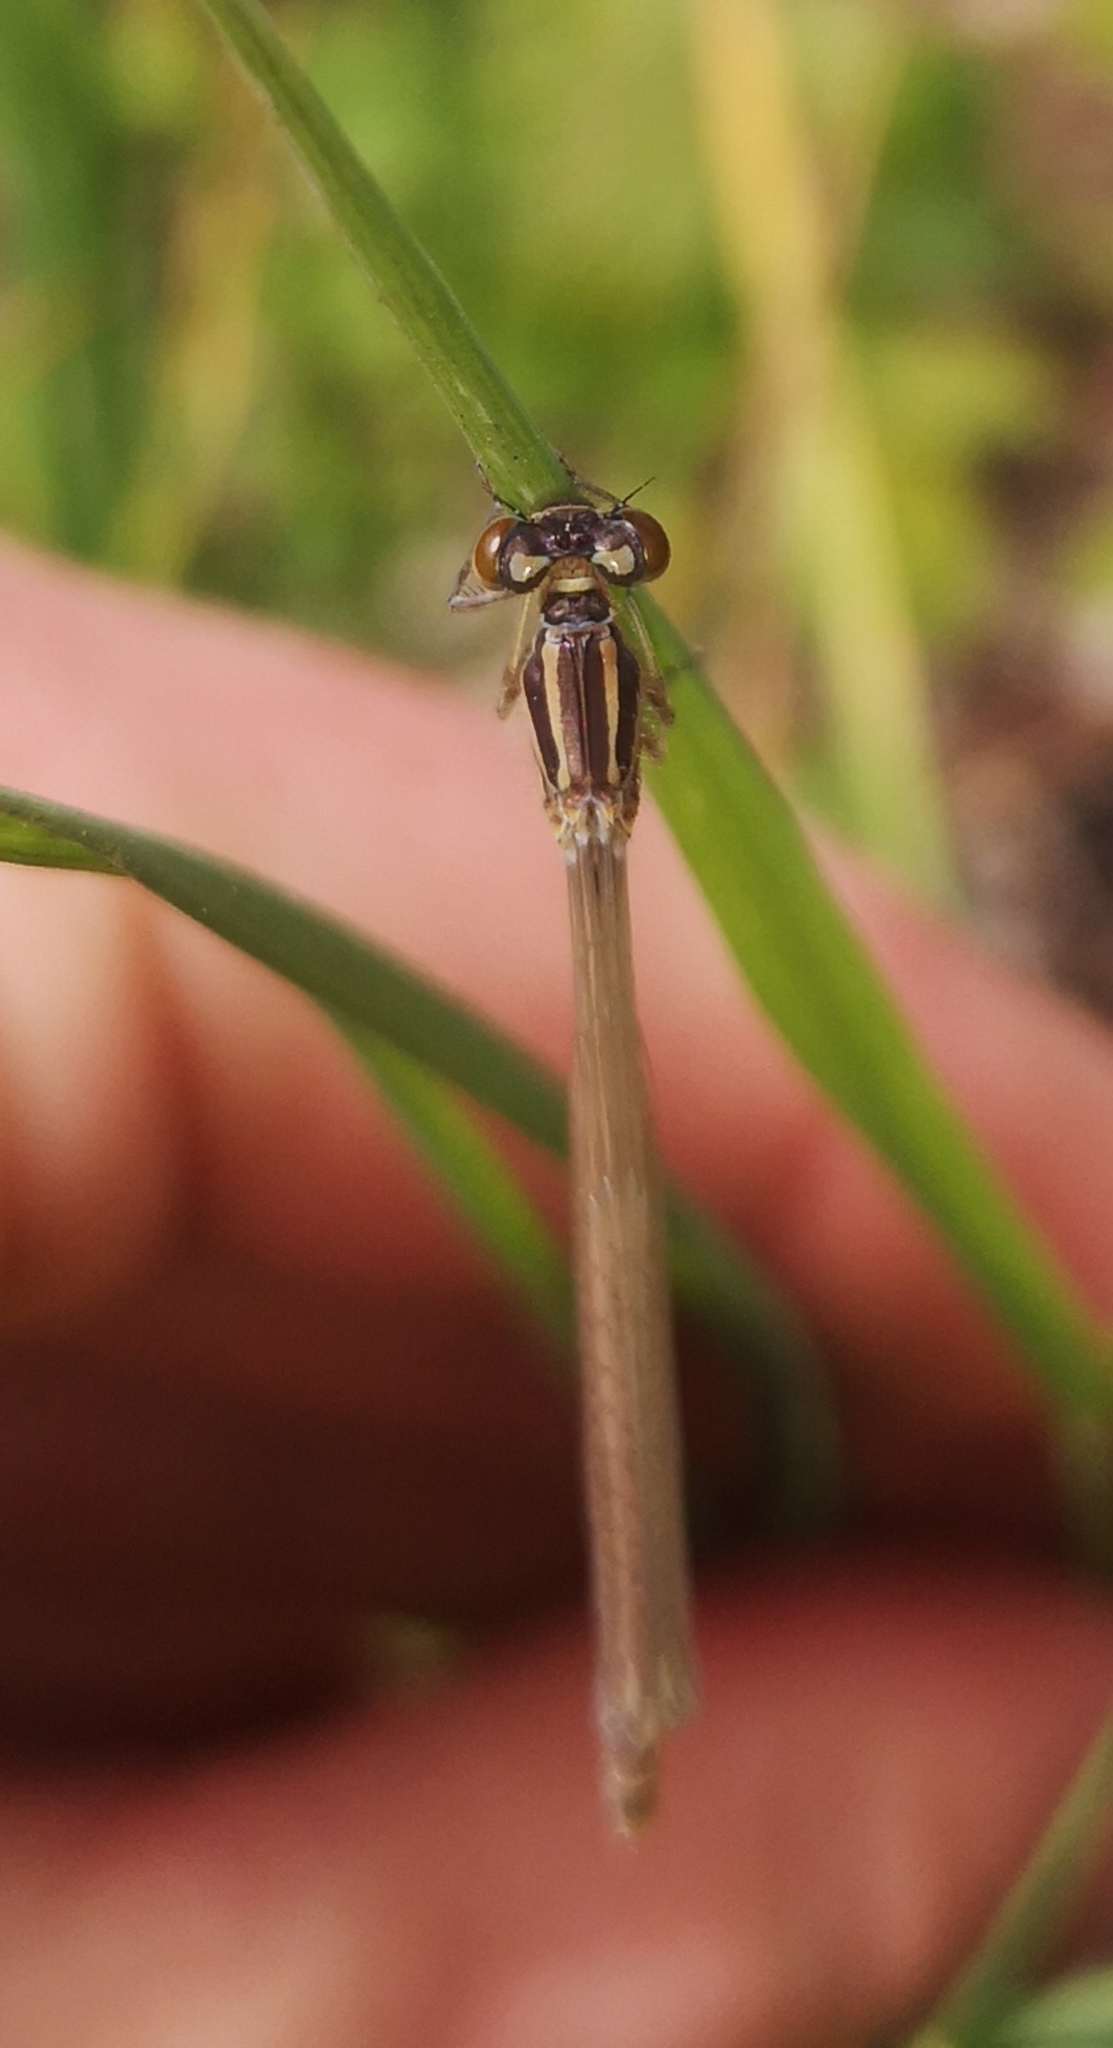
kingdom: Animalia
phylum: Arthropoda
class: Insecta
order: Odonata
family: Coenagrionidae
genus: Coenagrion
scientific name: Coenagrion puella
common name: Azure damselfly
